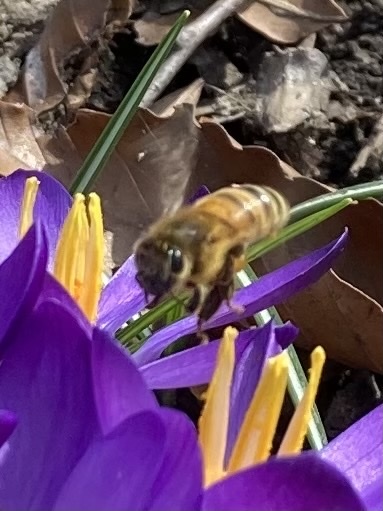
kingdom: Animalia
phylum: Arthropoda
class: Insecta
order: Hymenoptera
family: Apidae
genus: Apis
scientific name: Apis mellifera
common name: Honey bee
